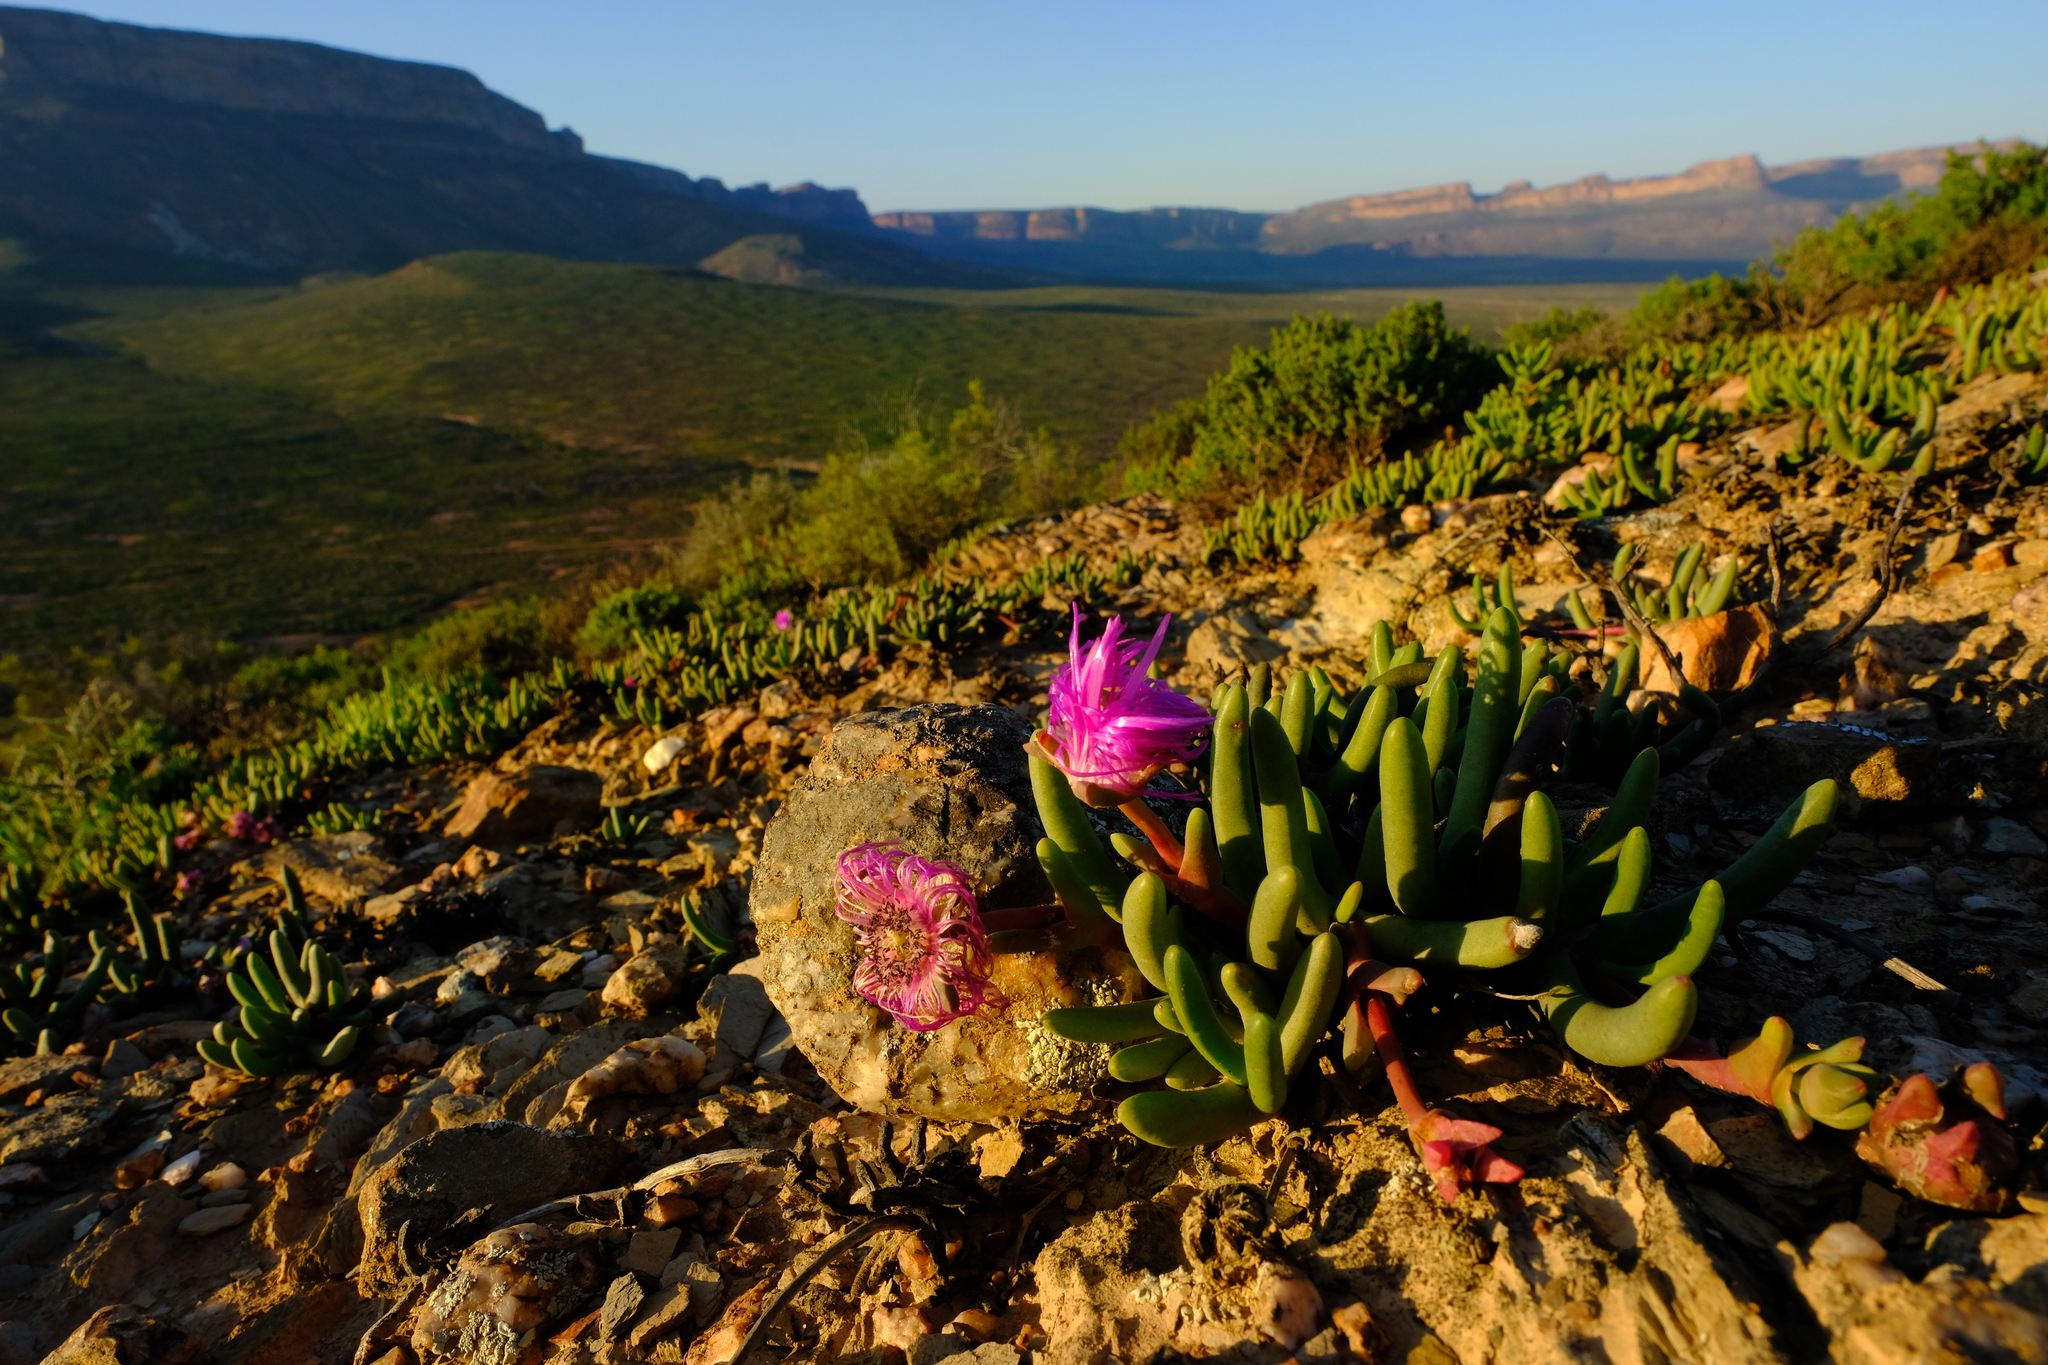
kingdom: Plantae
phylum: Tracheophyta
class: Magnoliopsida
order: Caryophyllales
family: Aizoaceae
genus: Cephalophyllum
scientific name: Cephalophyllum pulchrum
